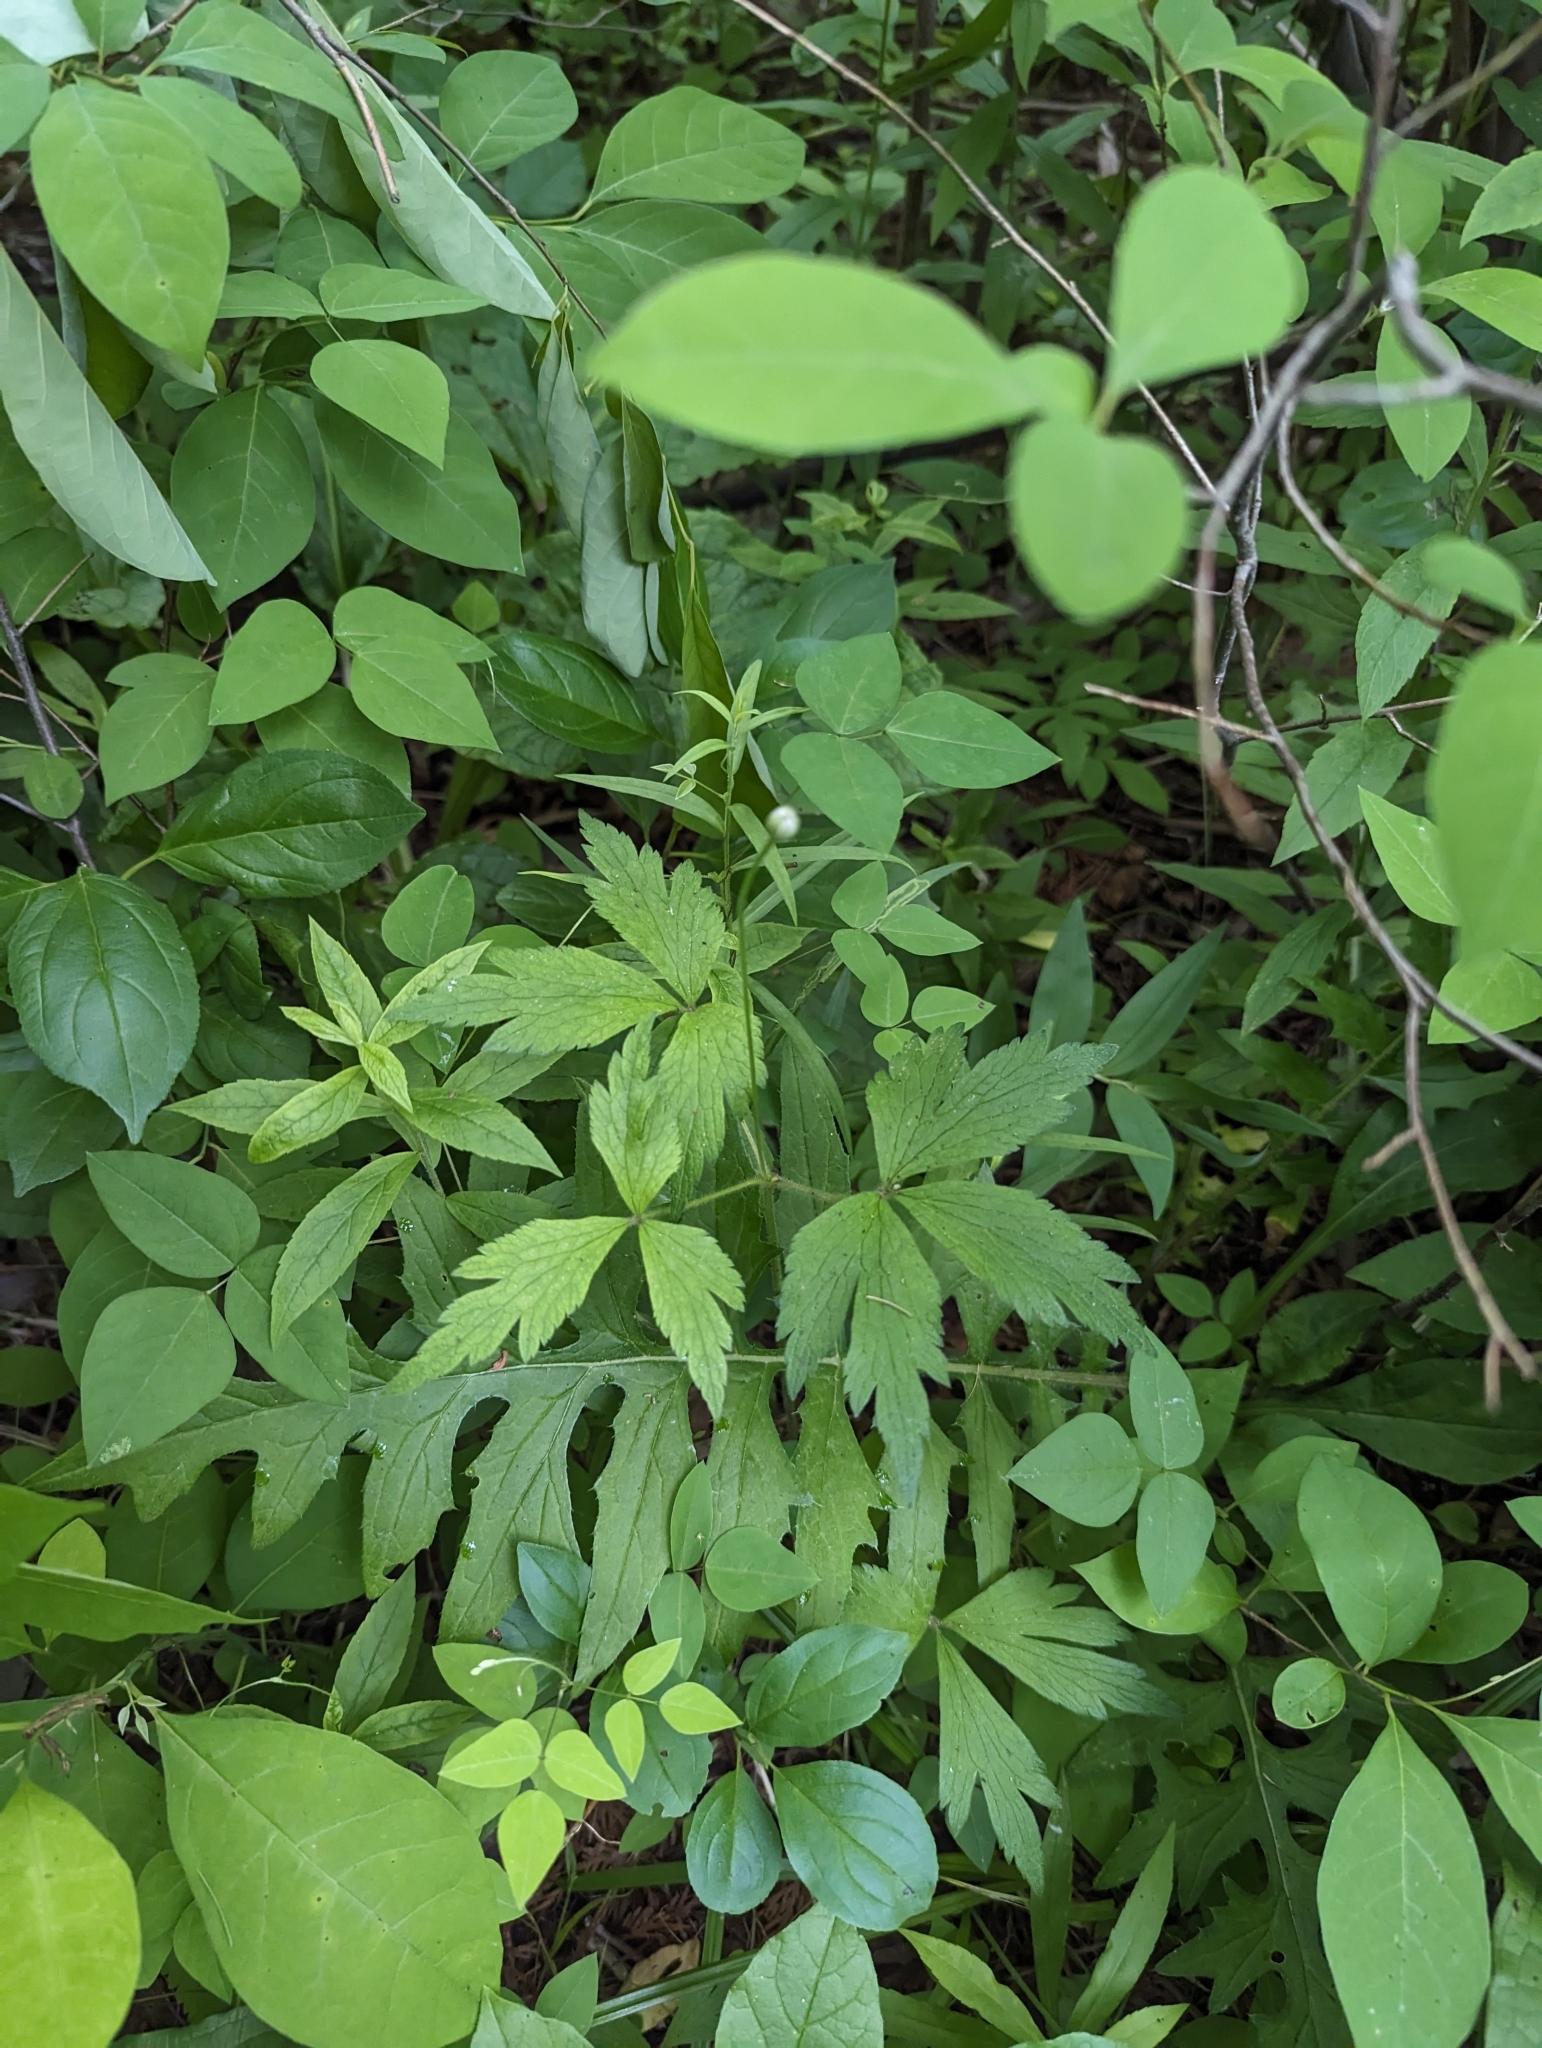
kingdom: Plantae
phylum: Tracheophyta
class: Magnoliopsida
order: Ranunculales
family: Ranunculaceae
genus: Anemone
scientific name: Anemone virginiana
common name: Tall anemone
